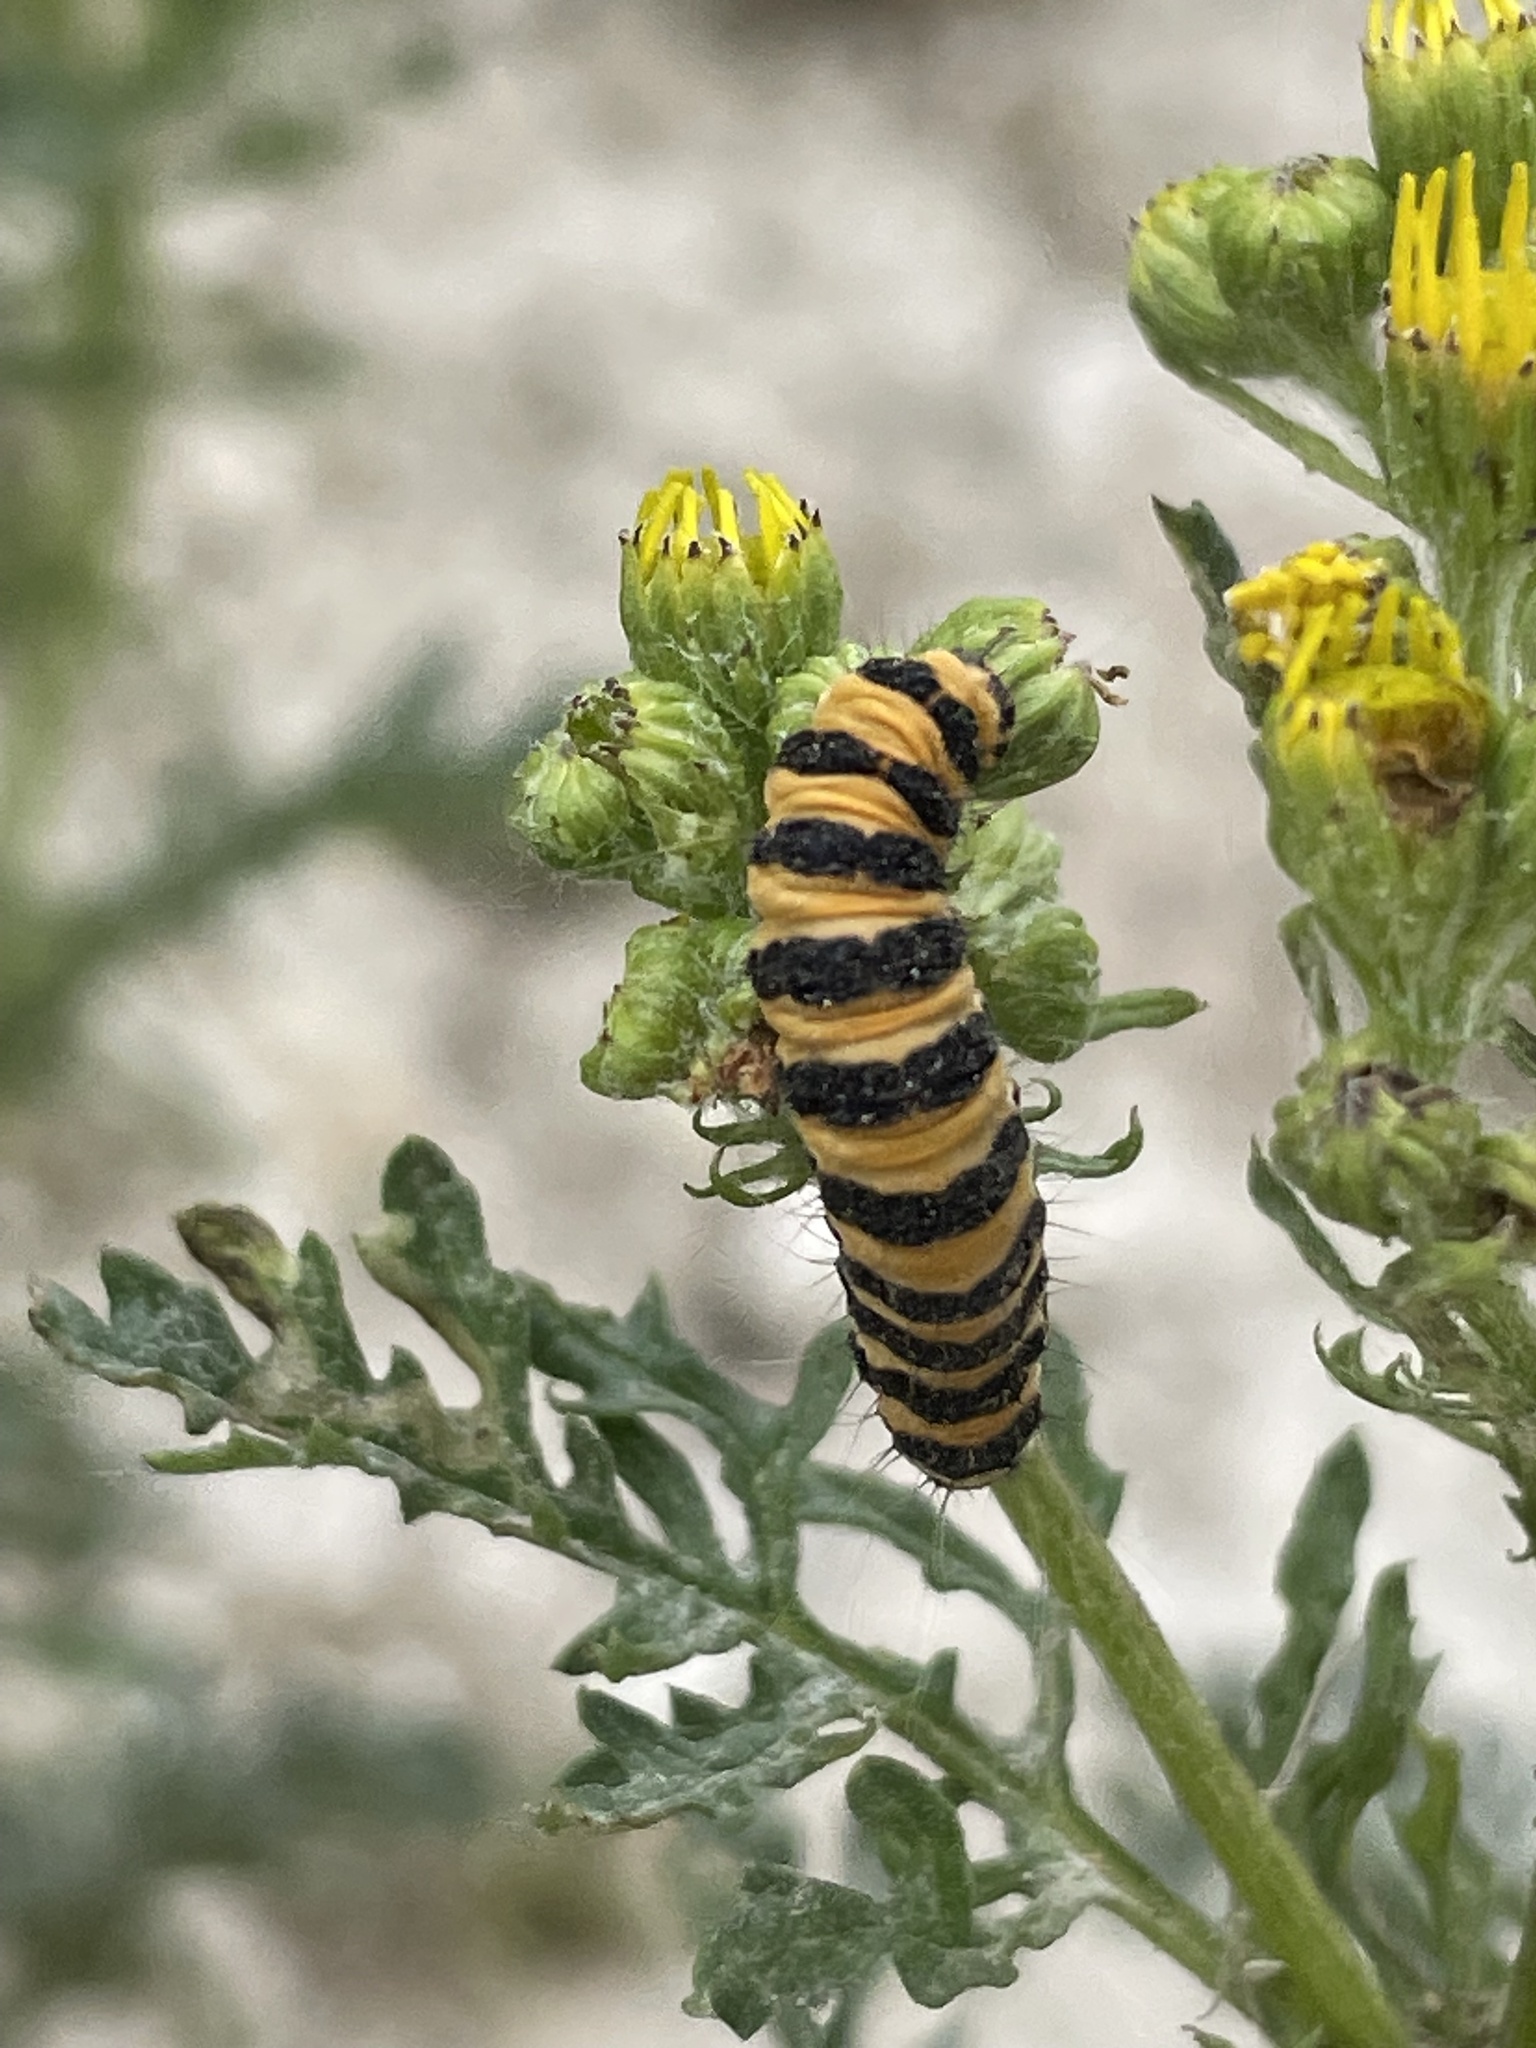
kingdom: Animalia
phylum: Arthropoda
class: Insecta
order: Lepidoptera
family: Erebidae
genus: Tyria
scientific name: Tyria jacobaeae
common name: Cinnabar
